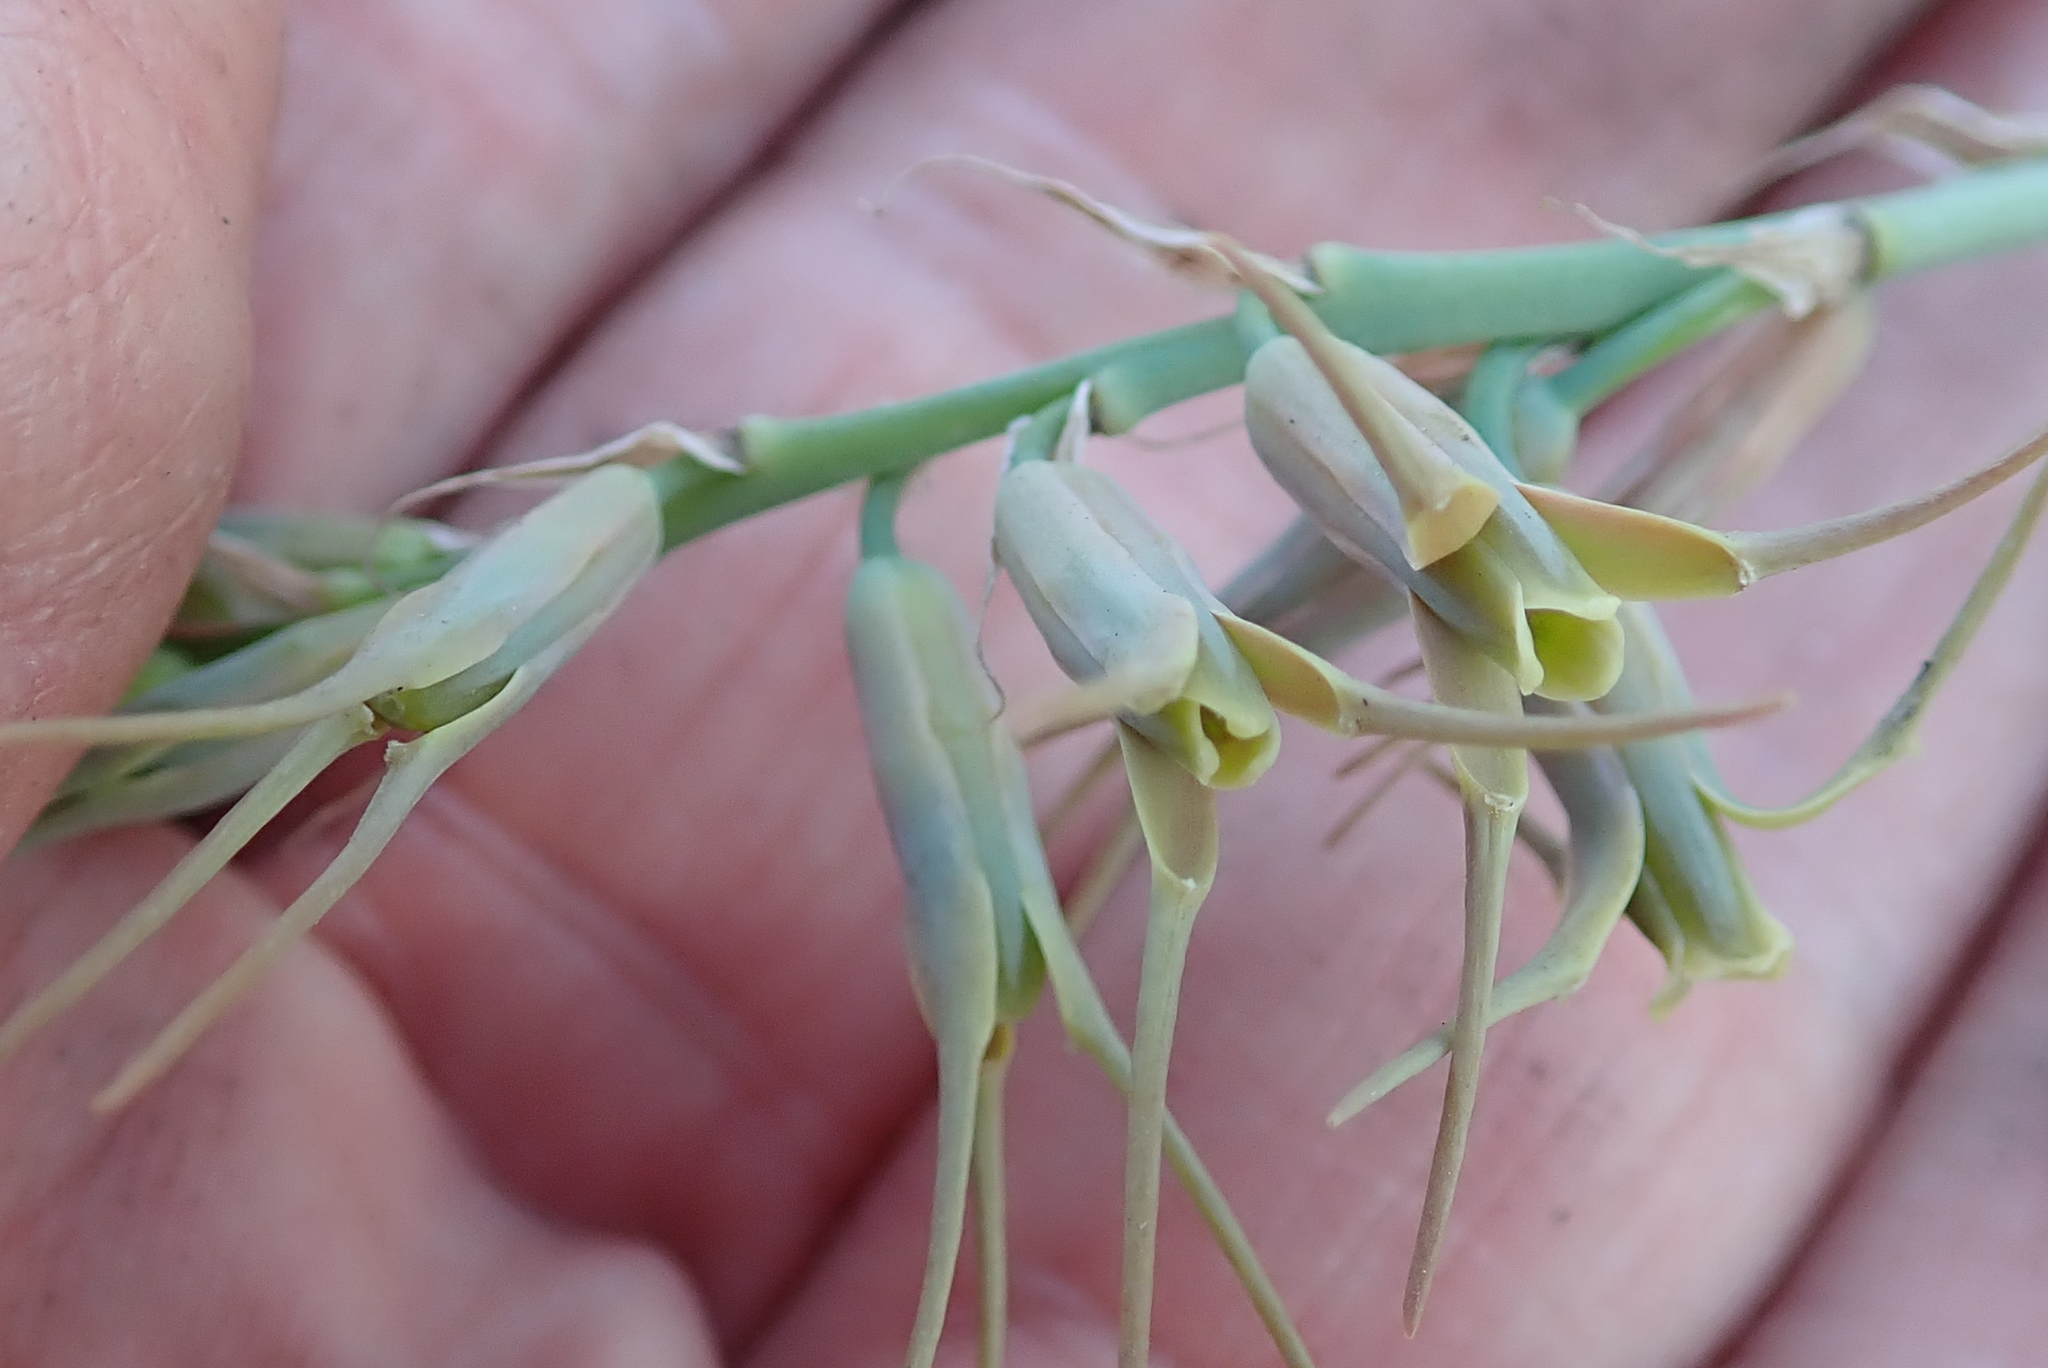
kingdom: Plantae
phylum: Tracheophyta
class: Liliopsida
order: Asparagales
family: Asparagaceae
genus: Dipcadi
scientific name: Dipcadi viride
